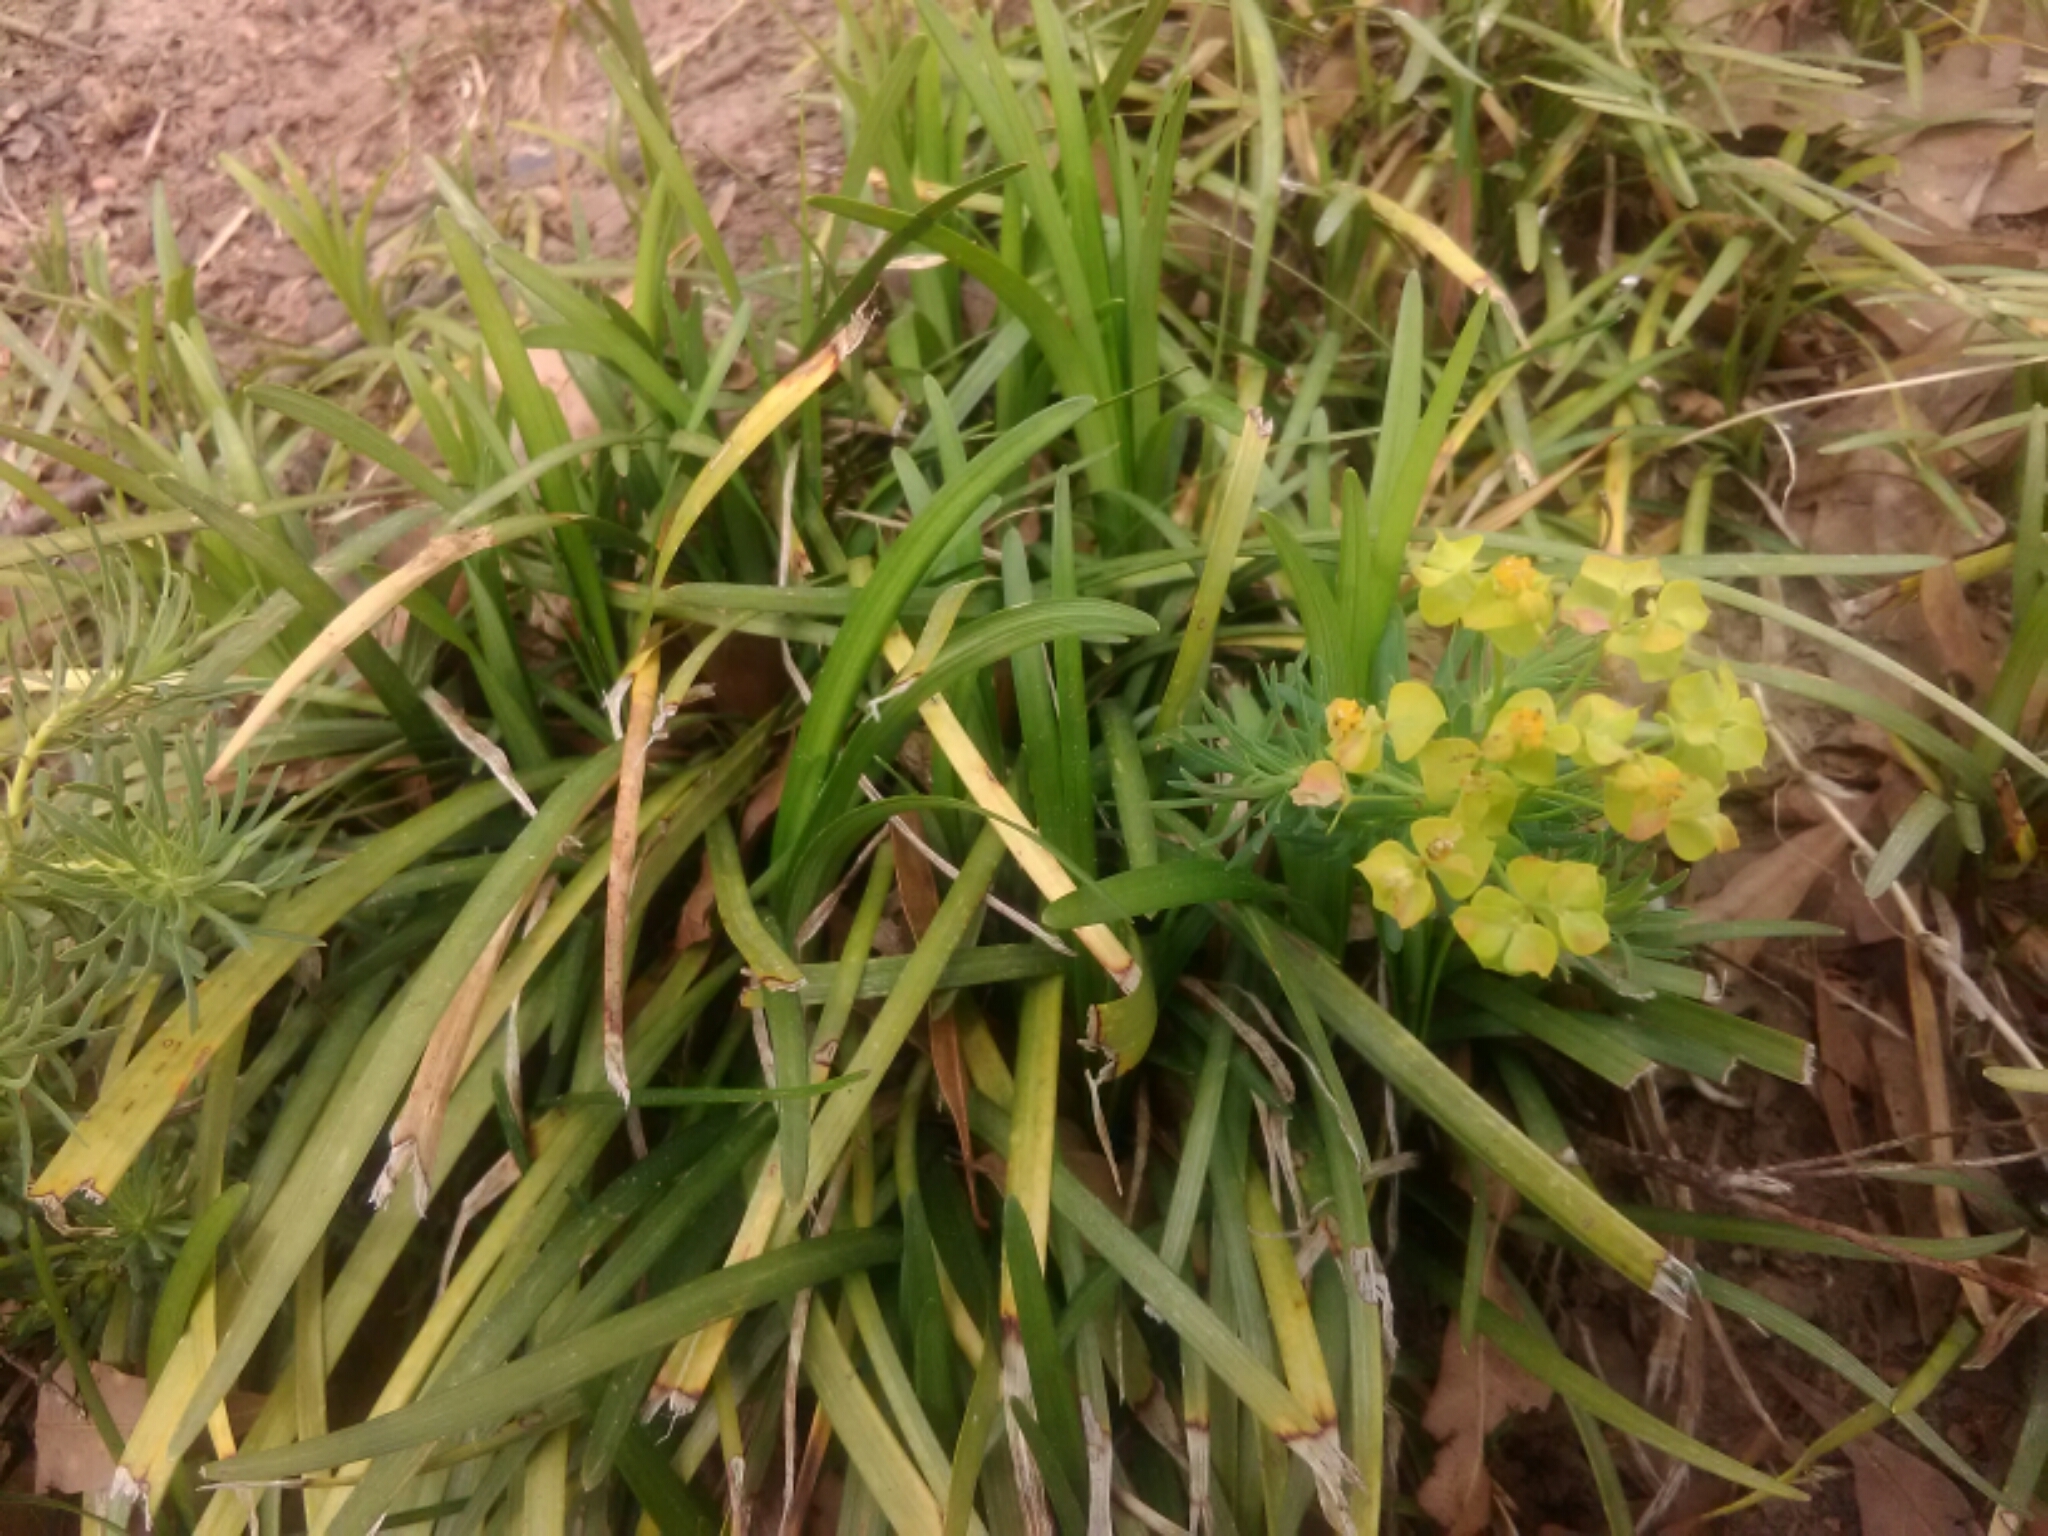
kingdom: Plantae
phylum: Tracheophyta
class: Magnoliopsida
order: Malpighiales
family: Euphorbiaceae
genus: Euphorbia
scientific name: Euphorbia cyparissias
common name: Cypress spurge
